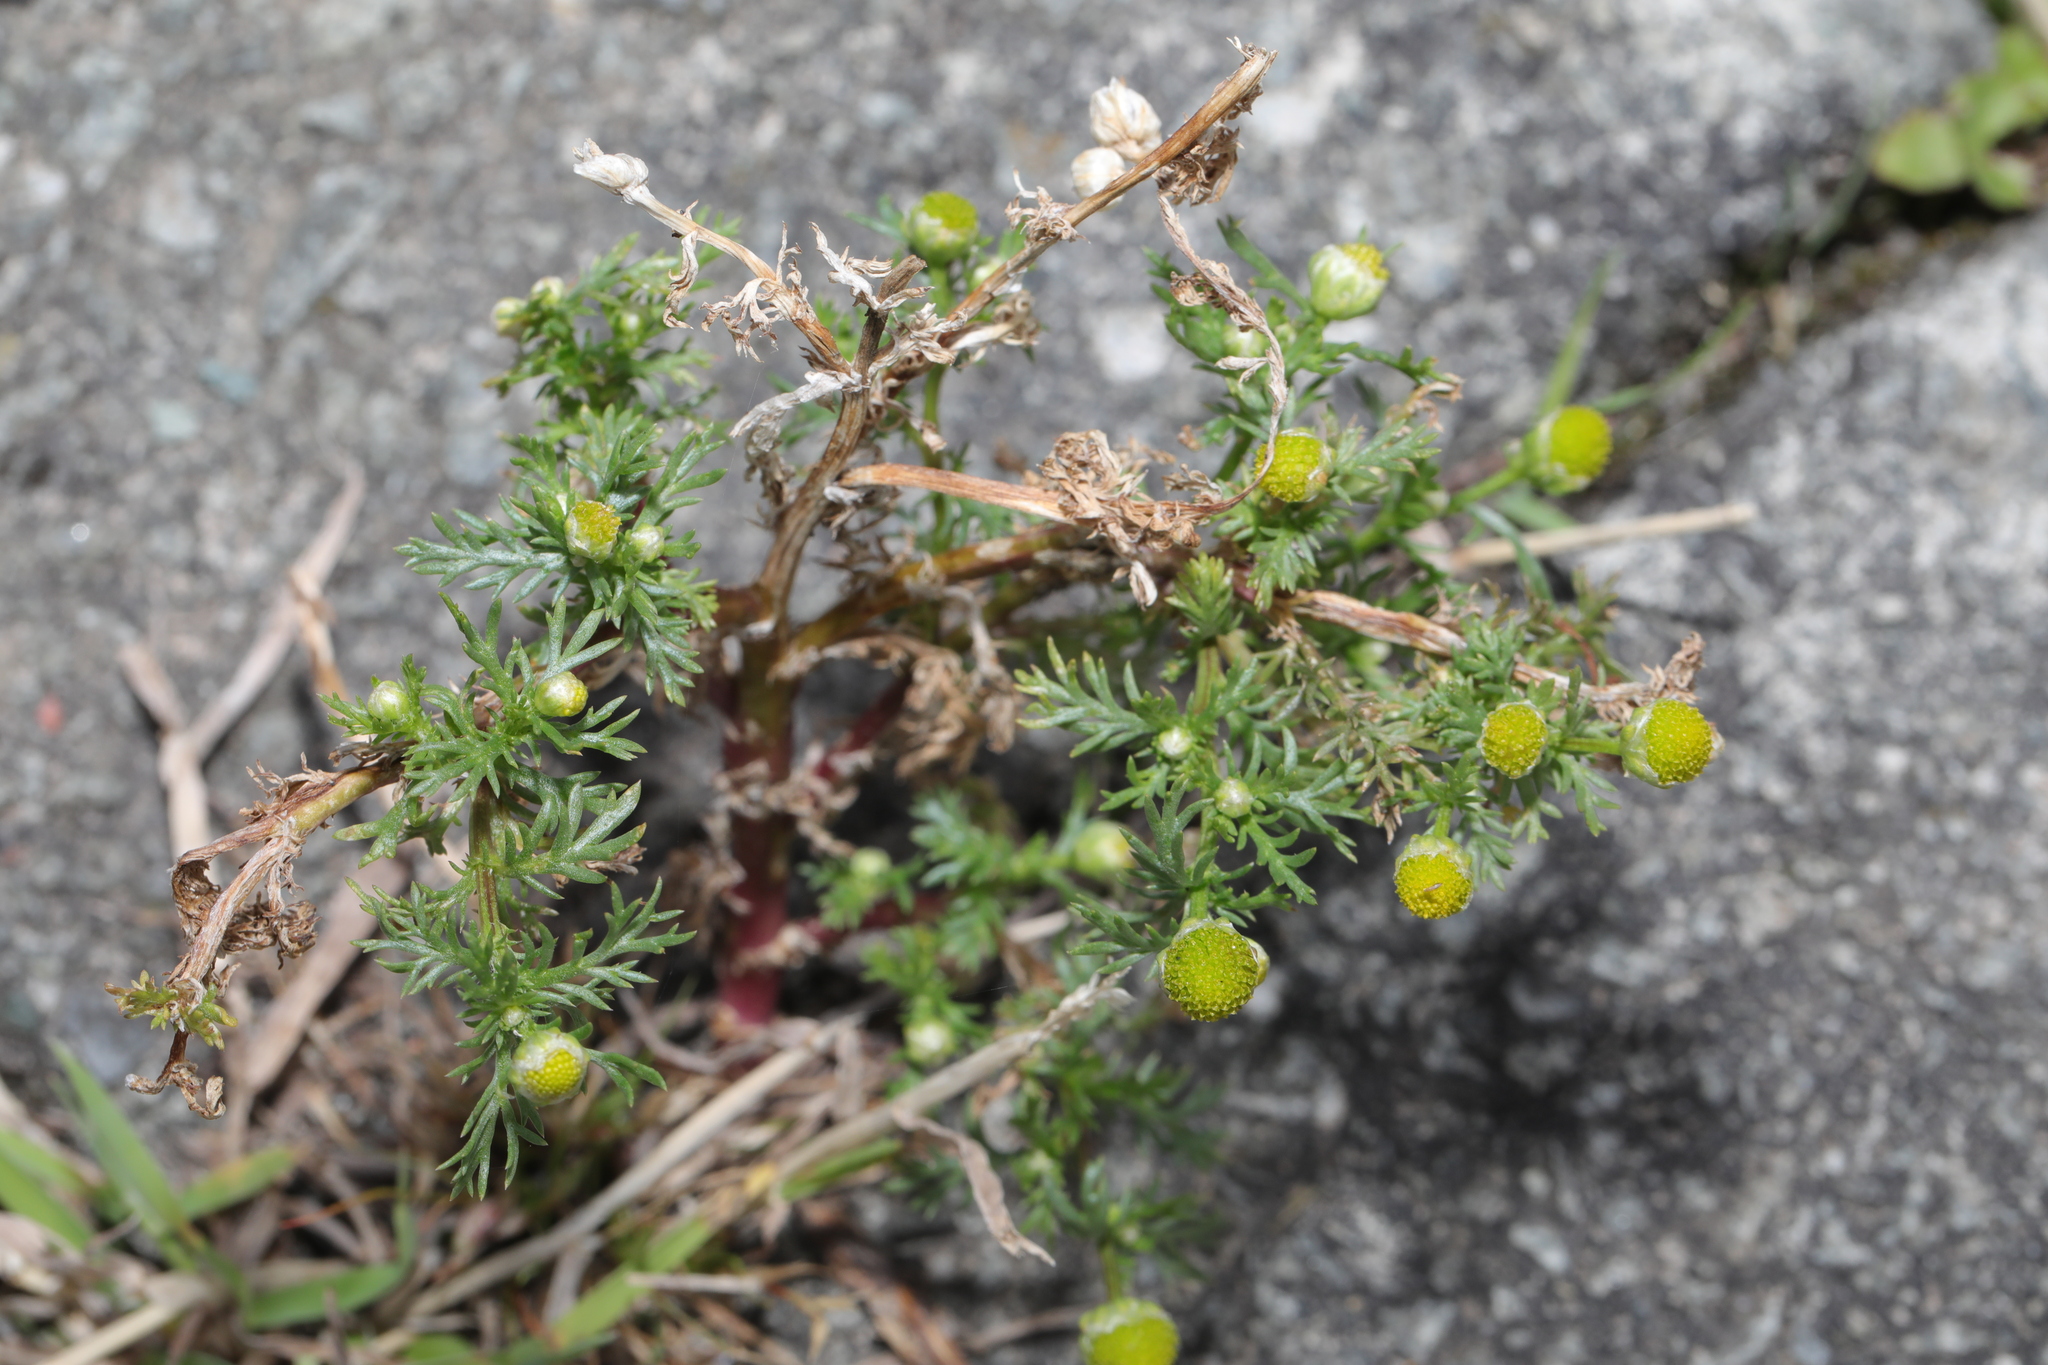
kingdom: Plantae
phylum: Tracheophyta
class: Magnoliopsida
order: Asterales
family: Asteraceae
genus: Matricaria
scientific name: Matricaria discoidea
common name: Disc mayweed
